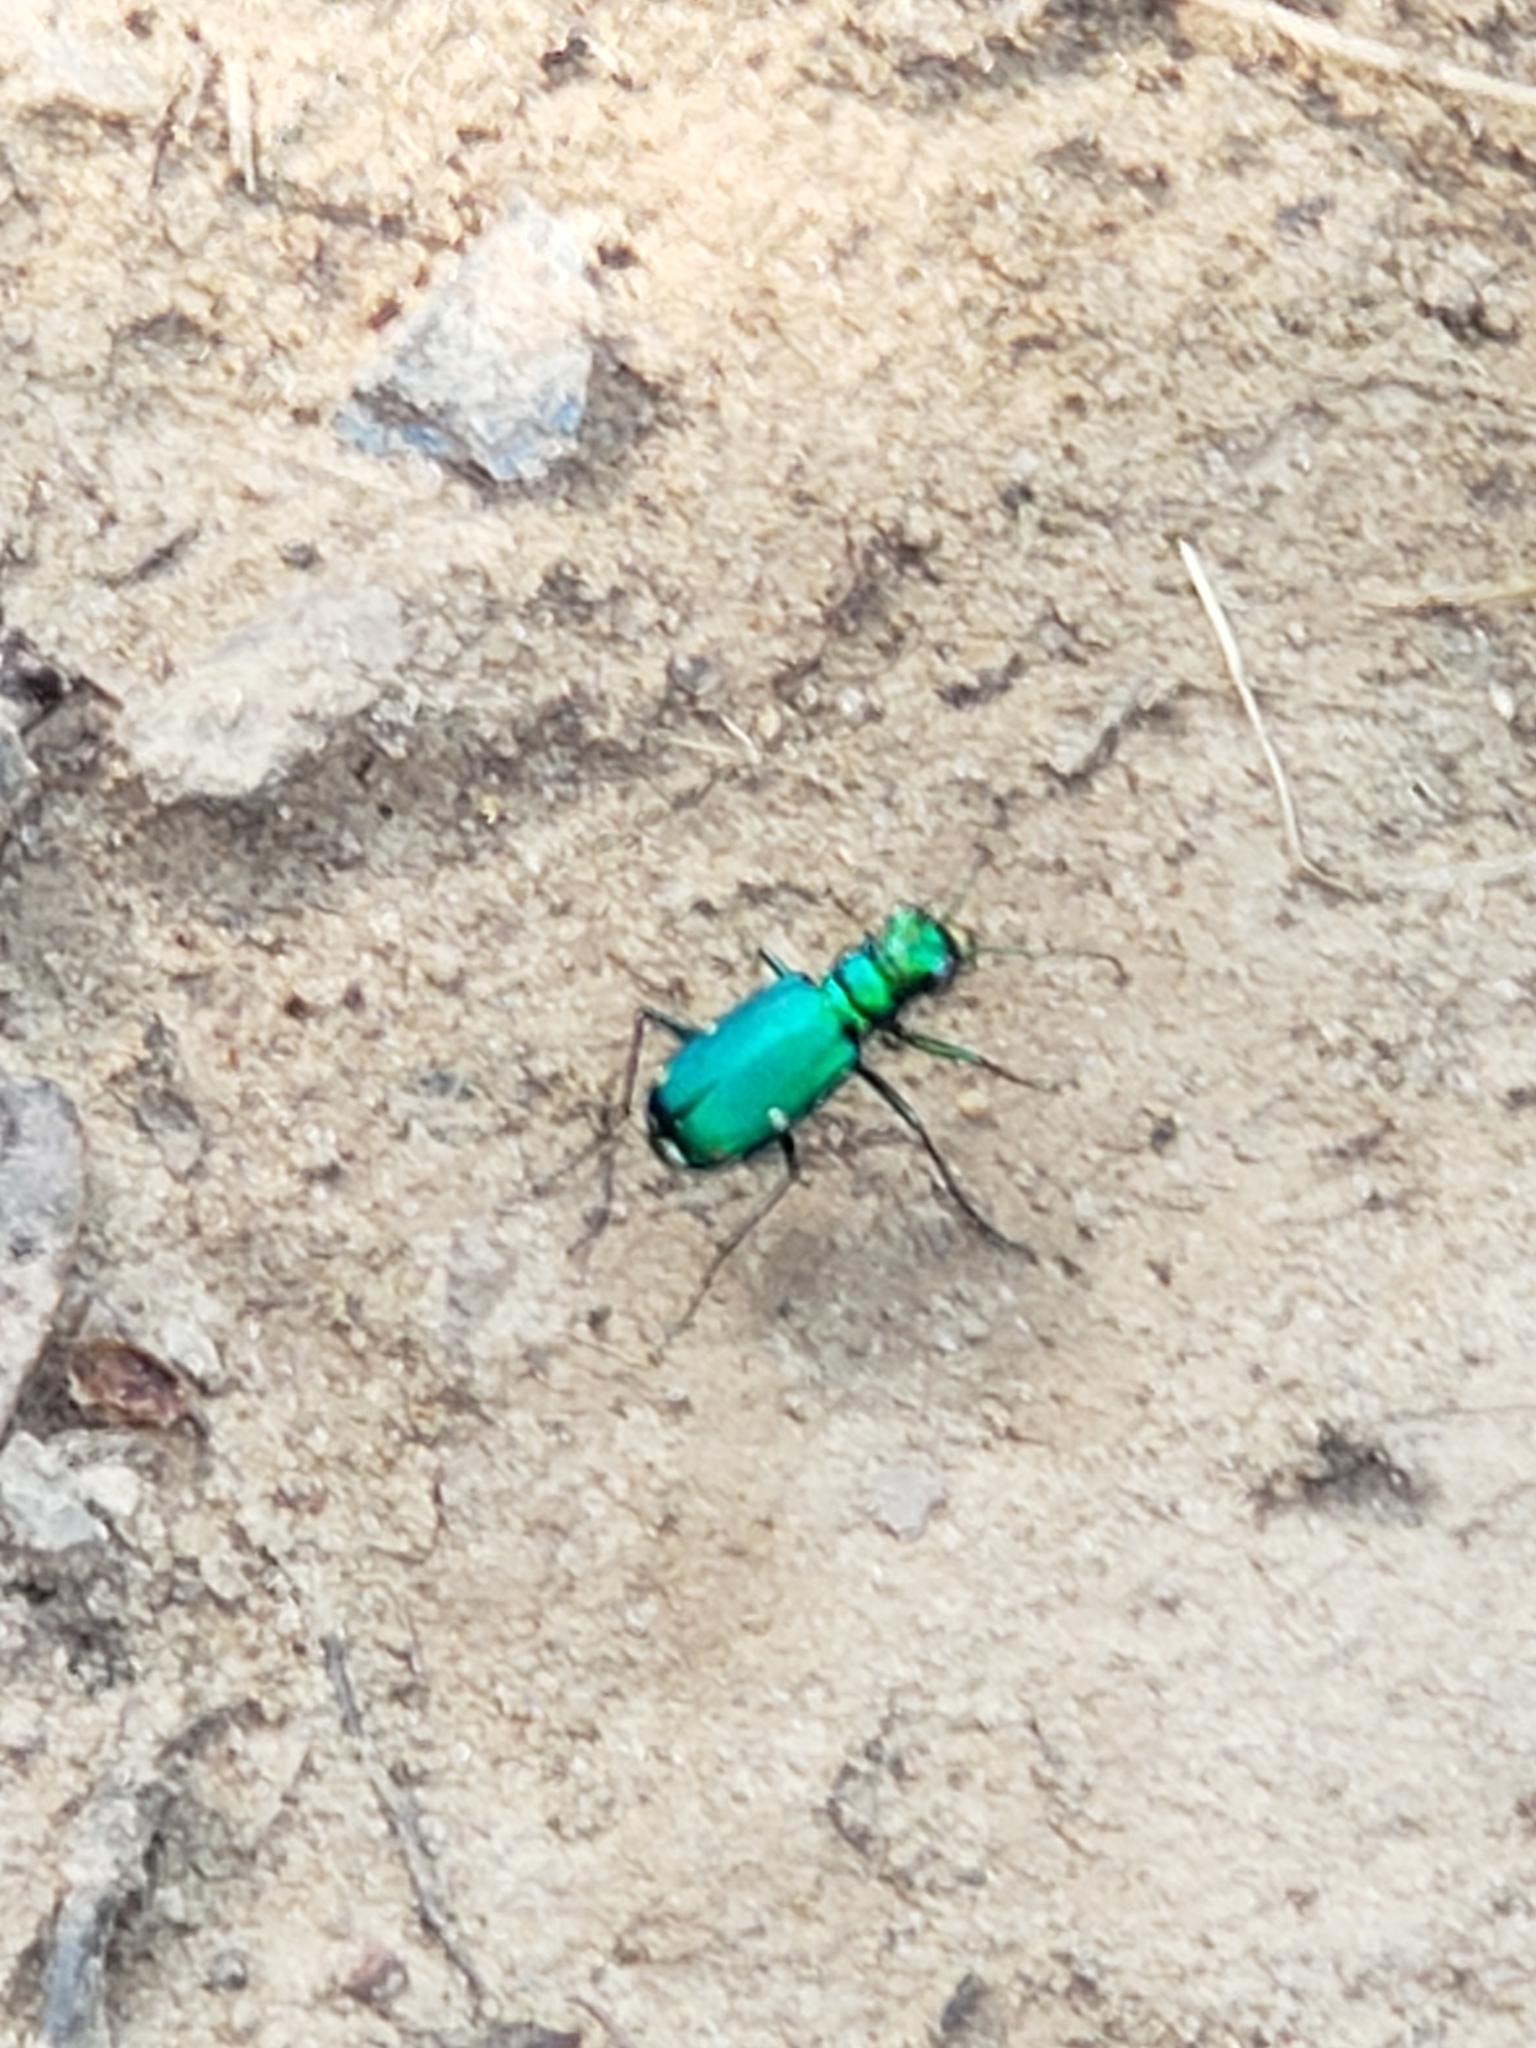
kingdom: Animalia
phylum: Arthropoda
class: Insecta
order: Coleoptera
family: Carabidae
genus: Cicindela
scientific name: Cicindela sexguttata
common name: Six-spotted tiger beetle
